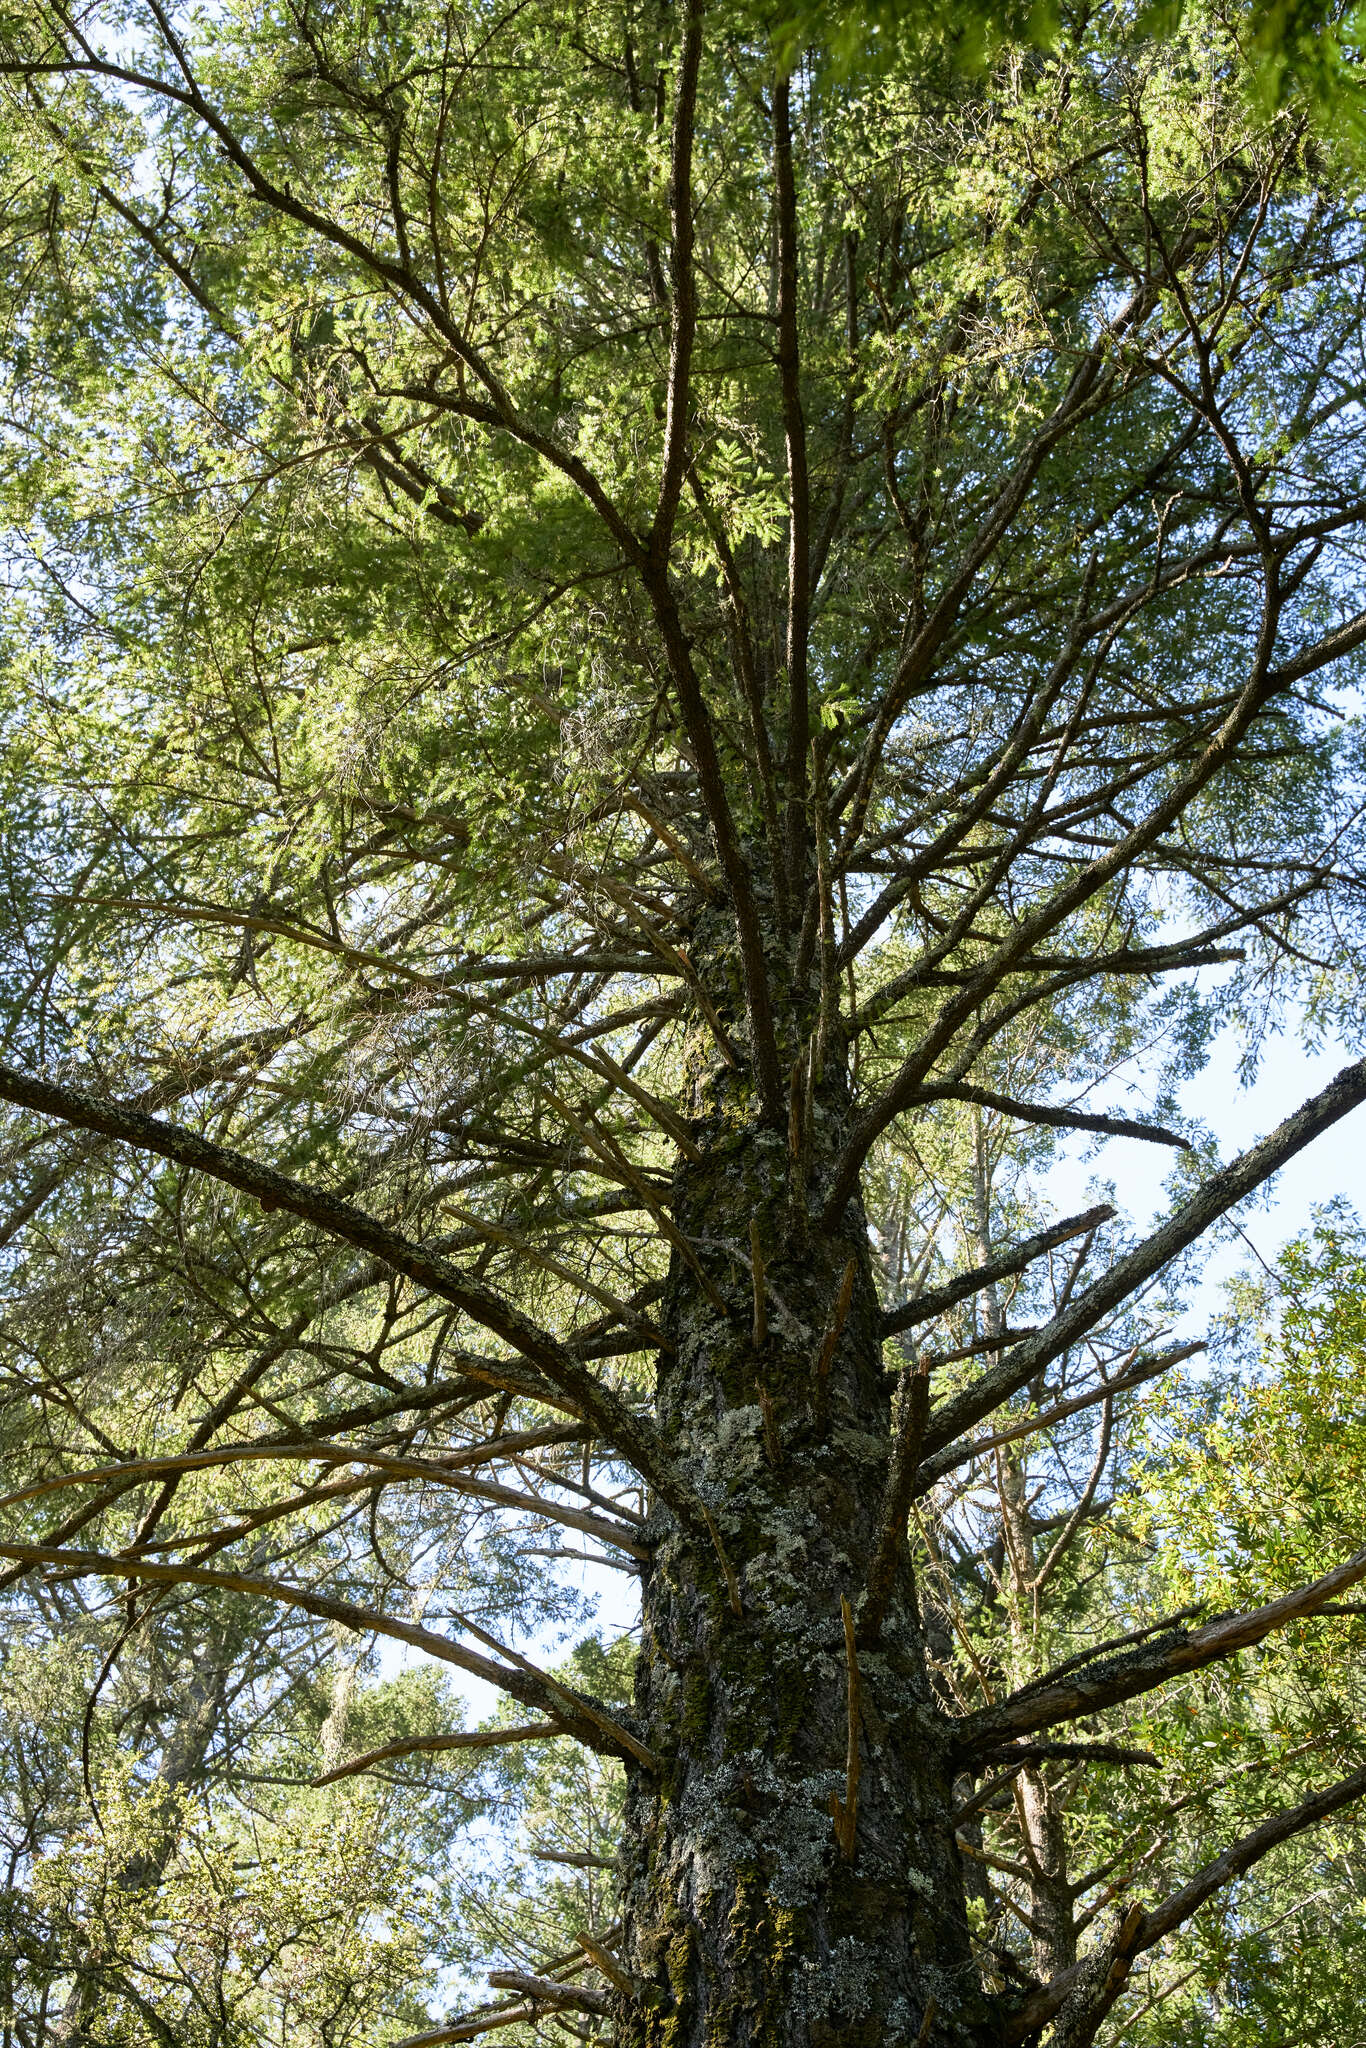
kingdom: Plantae
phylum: Tracheophyta
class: Pinopsida
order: Pinales
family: Pinaceae
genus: Pseudotsuga
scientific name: Pseudotsuga menziesii
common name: Douglas fir
